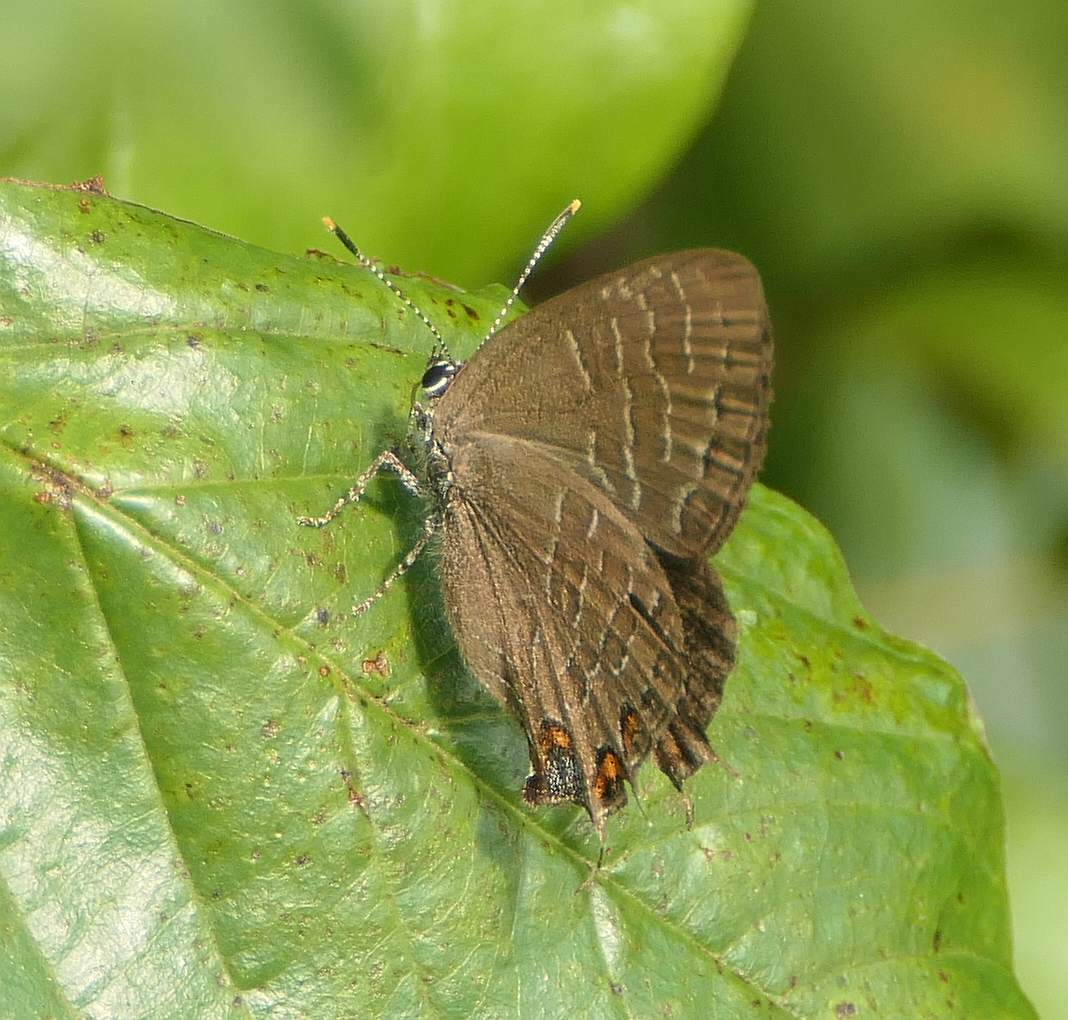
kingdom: Animalia
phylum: Arthropoda
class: Insecta
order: Lepidoptera
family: Lycaenidae
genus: Satyrium
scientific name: Satyrium liparops
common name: Striped hairstreak
